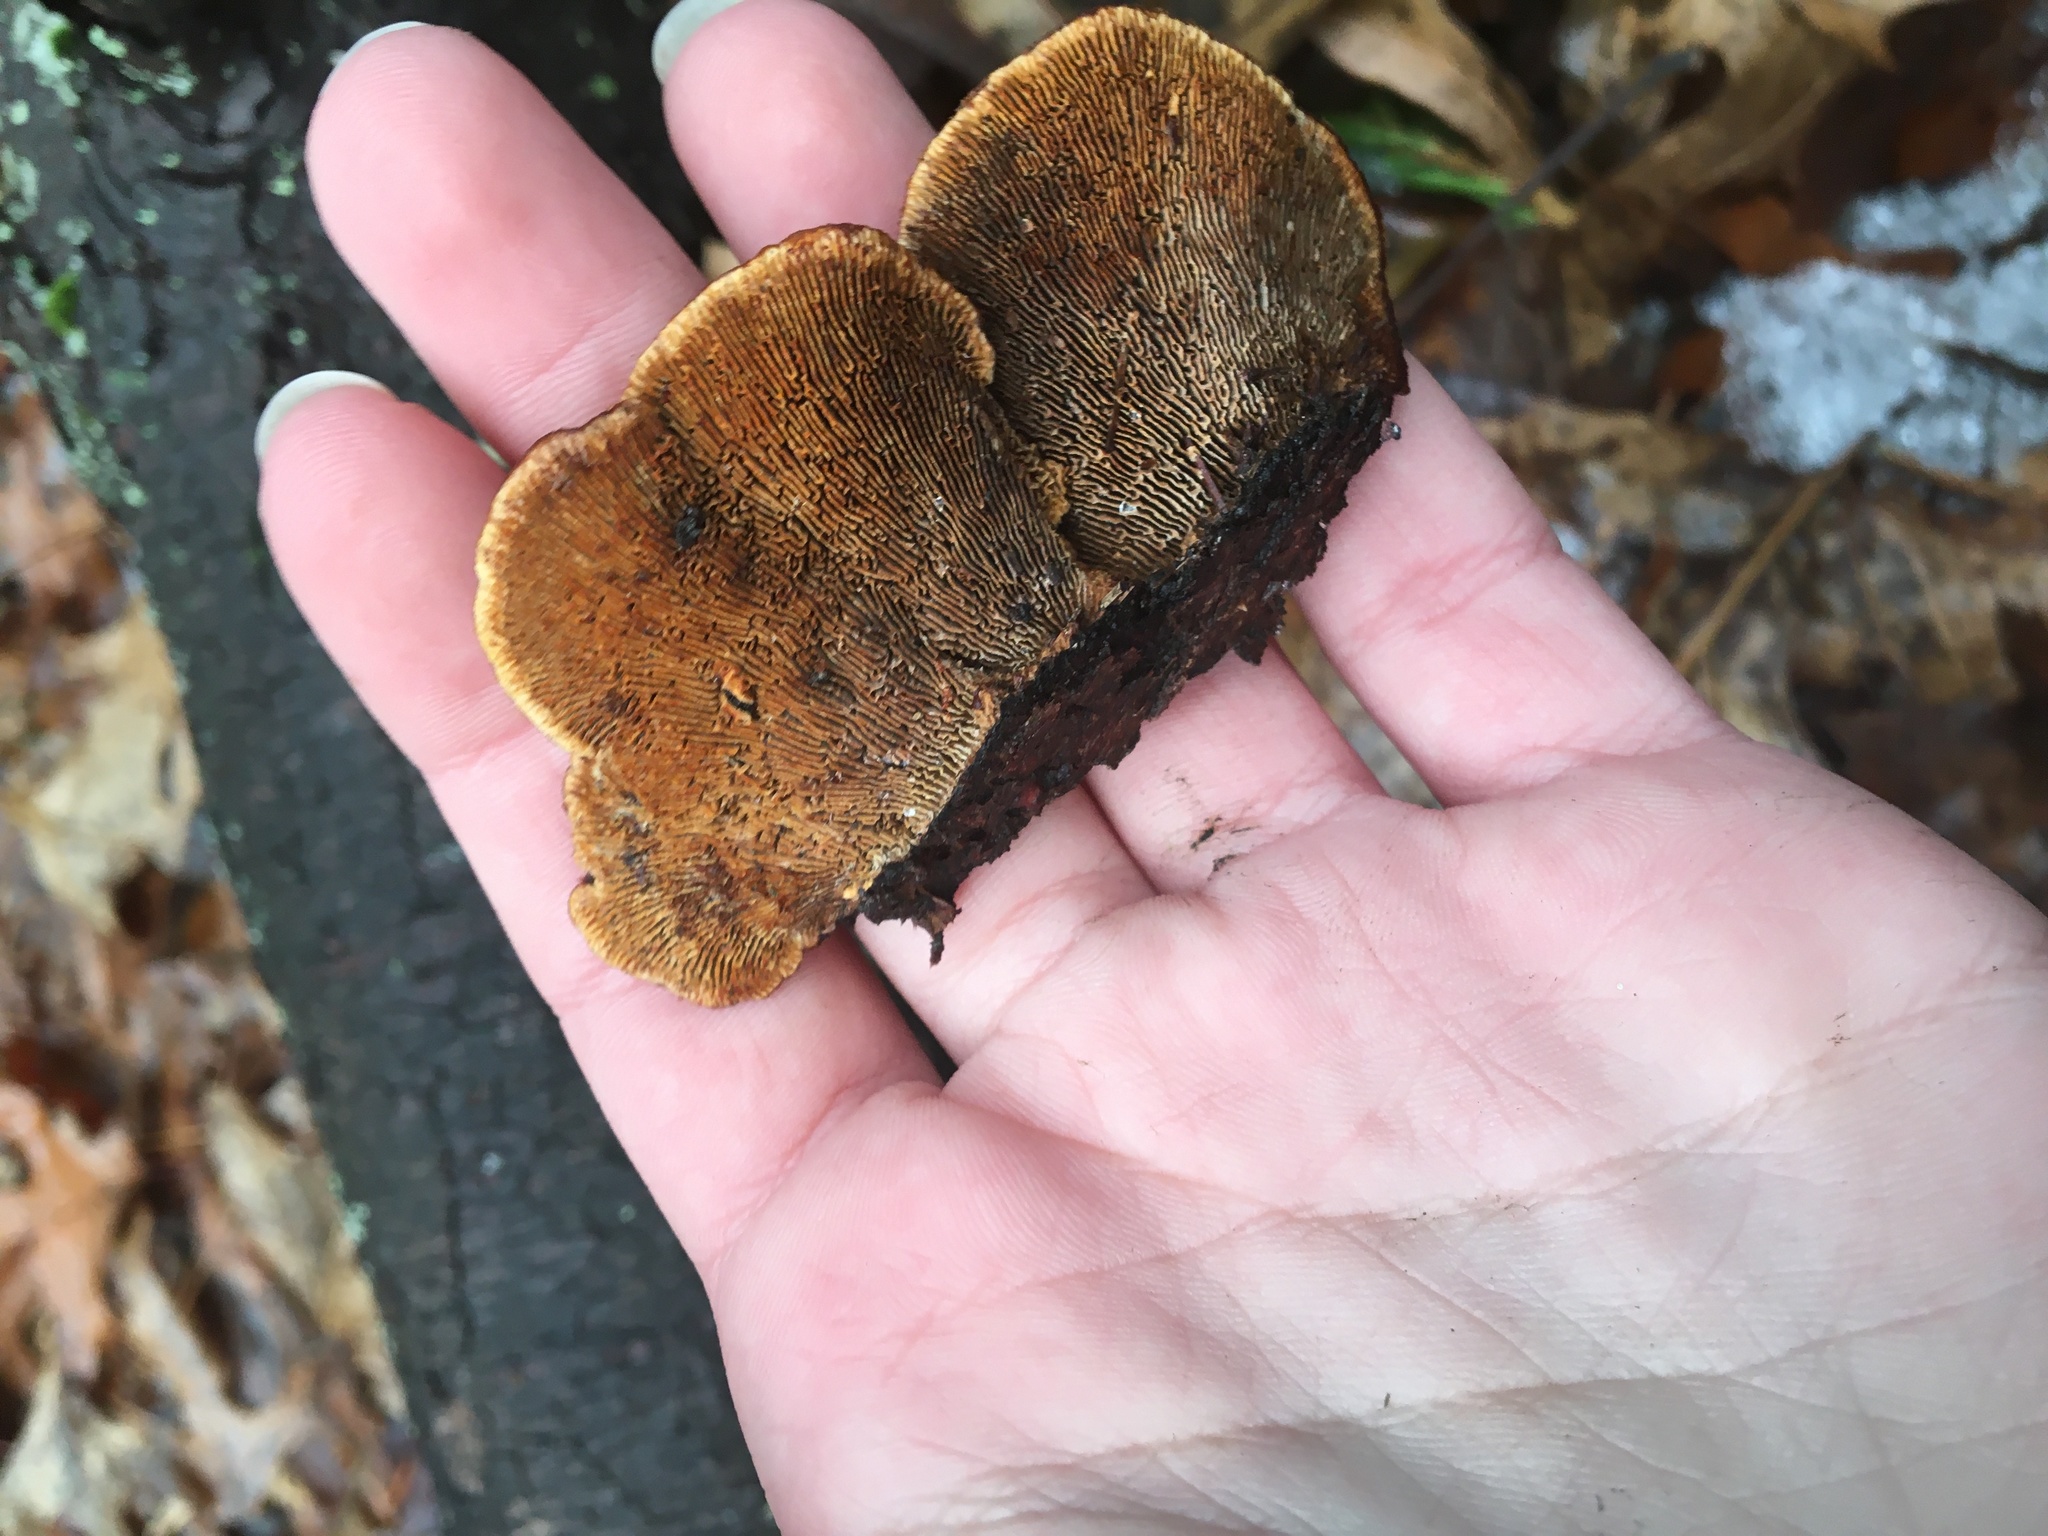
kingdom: Fungi
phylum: Basidiomycota
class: Agaricomycetes
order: Gloeophyllales
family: Gloeophyllaceae
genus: Gloeophyllum
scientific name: Gloeophyllum sepiarium
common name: Conifer mazegill
